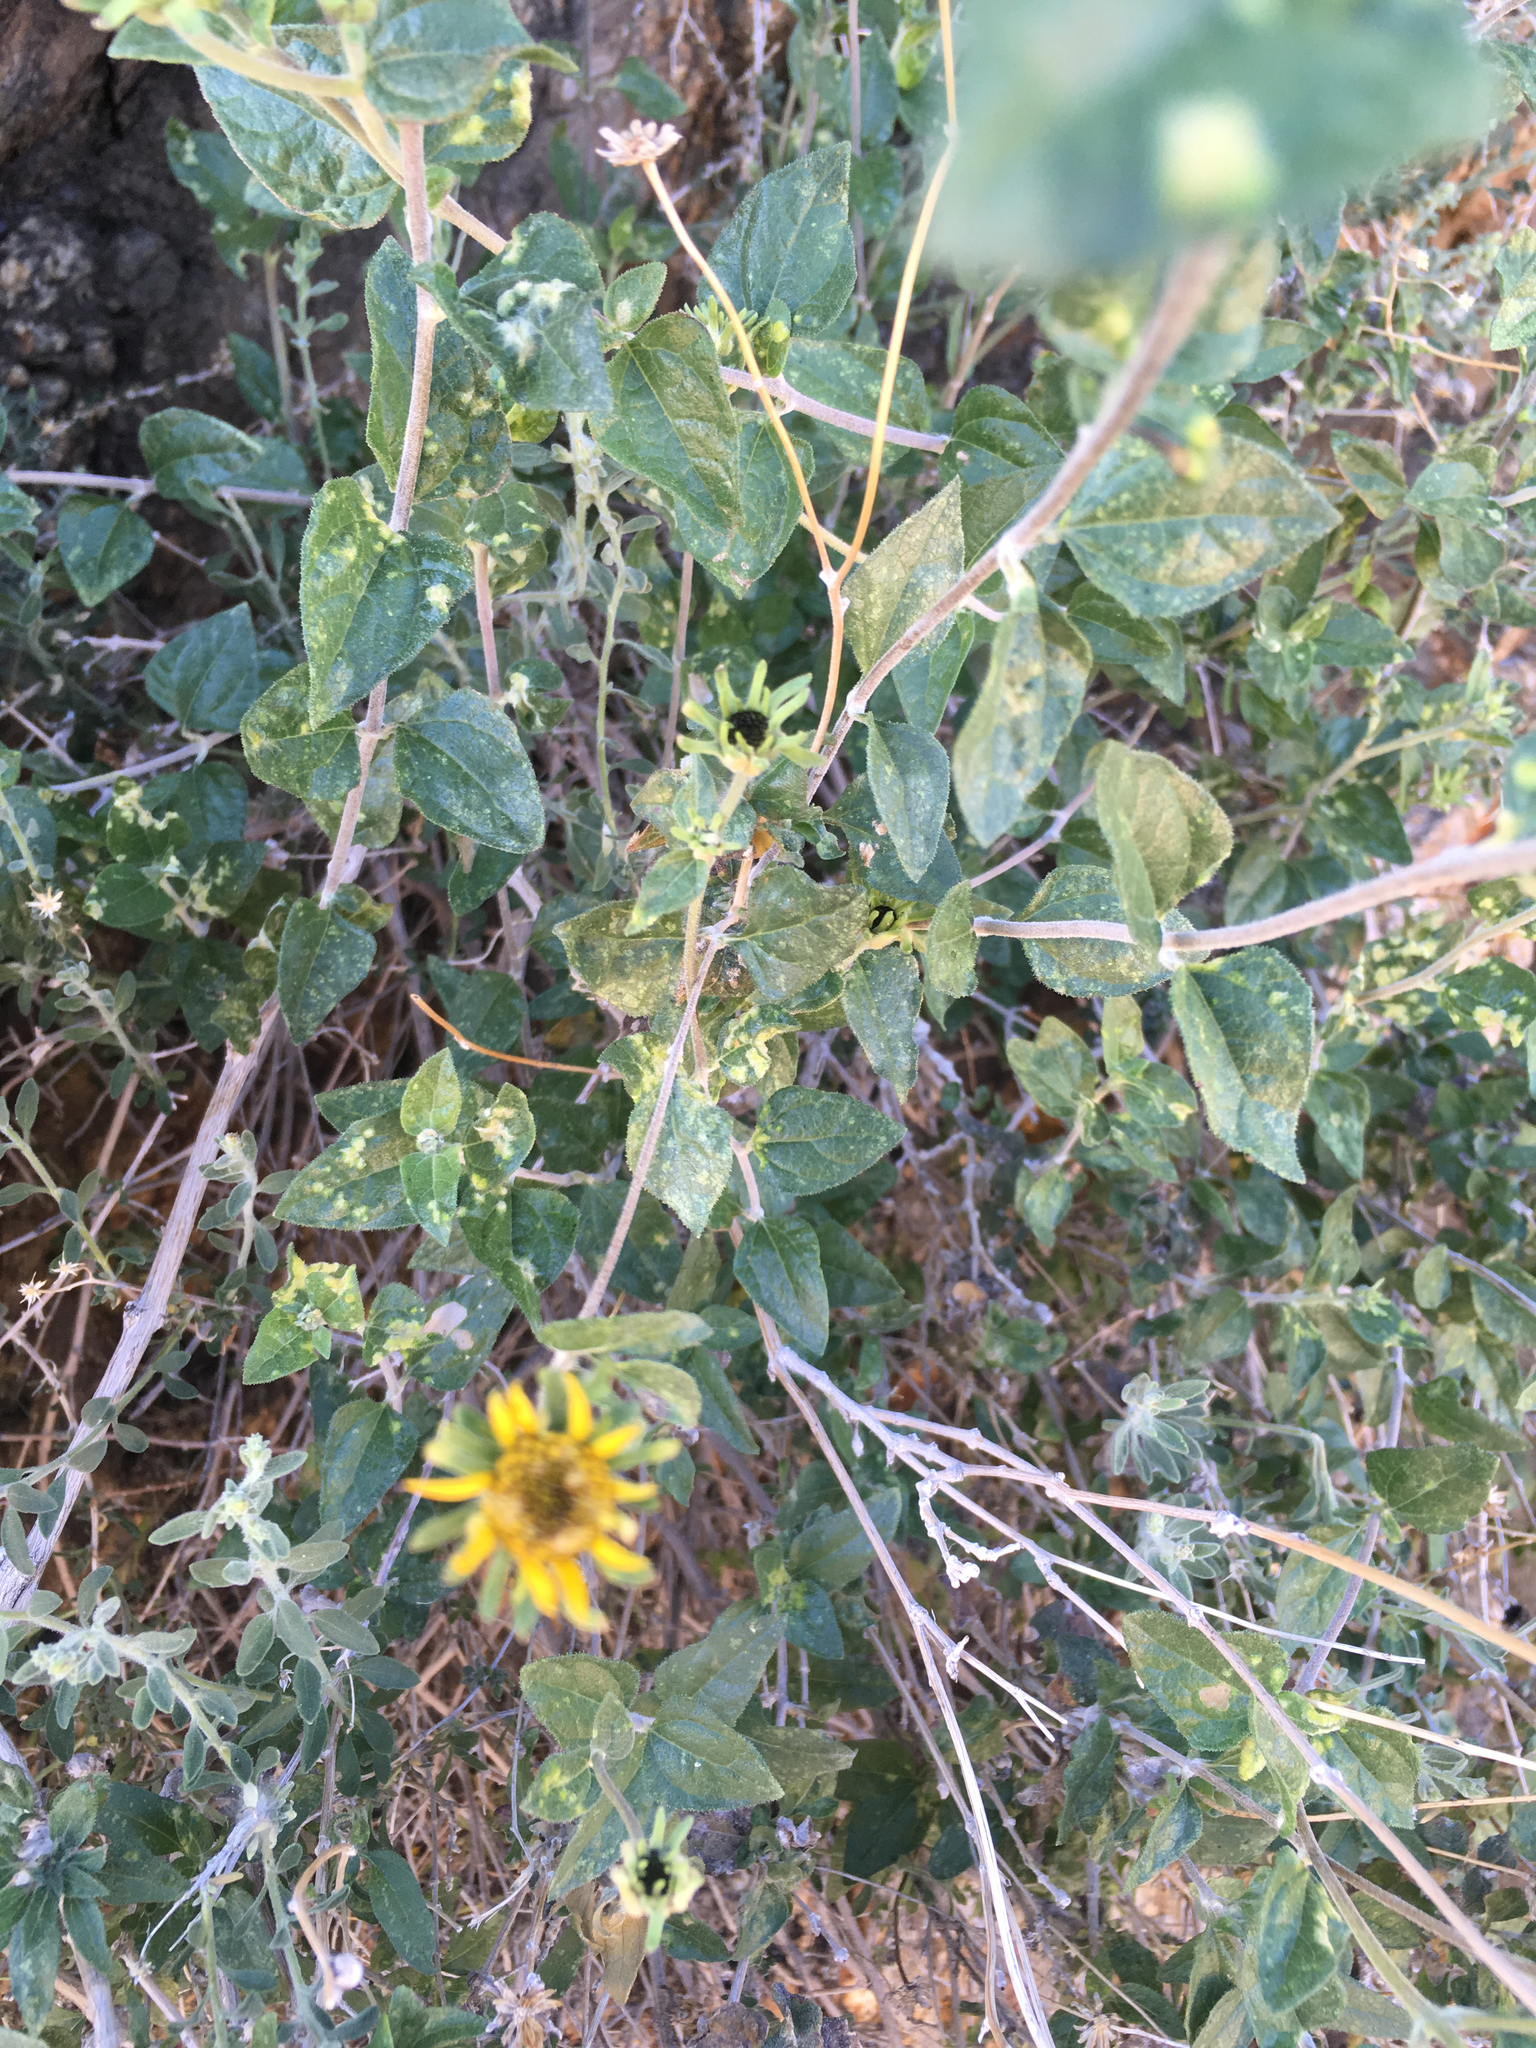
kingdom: Plantae
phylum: Tracheophyta
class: Magnoliopsida
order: Asterales
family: Asteraceae
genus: Bahiopsis
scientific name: Bahiopsis parishii
